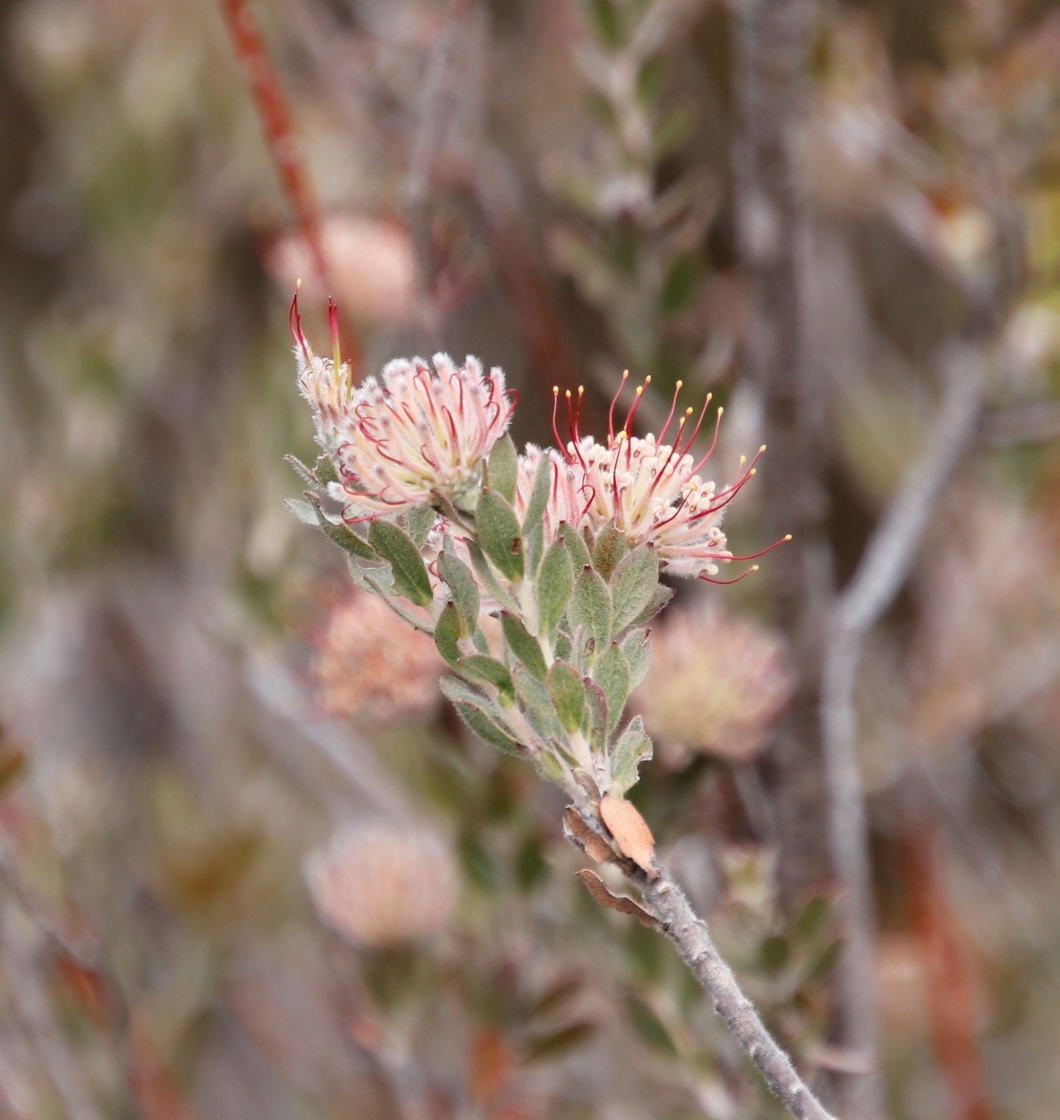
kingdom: Plantae
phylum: Tracheophyta
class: Magnoliopsida
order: Proteales
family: Proteaceae
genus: Leucospermum
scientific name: Leucospermum calligerum
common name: Arid pincushion
